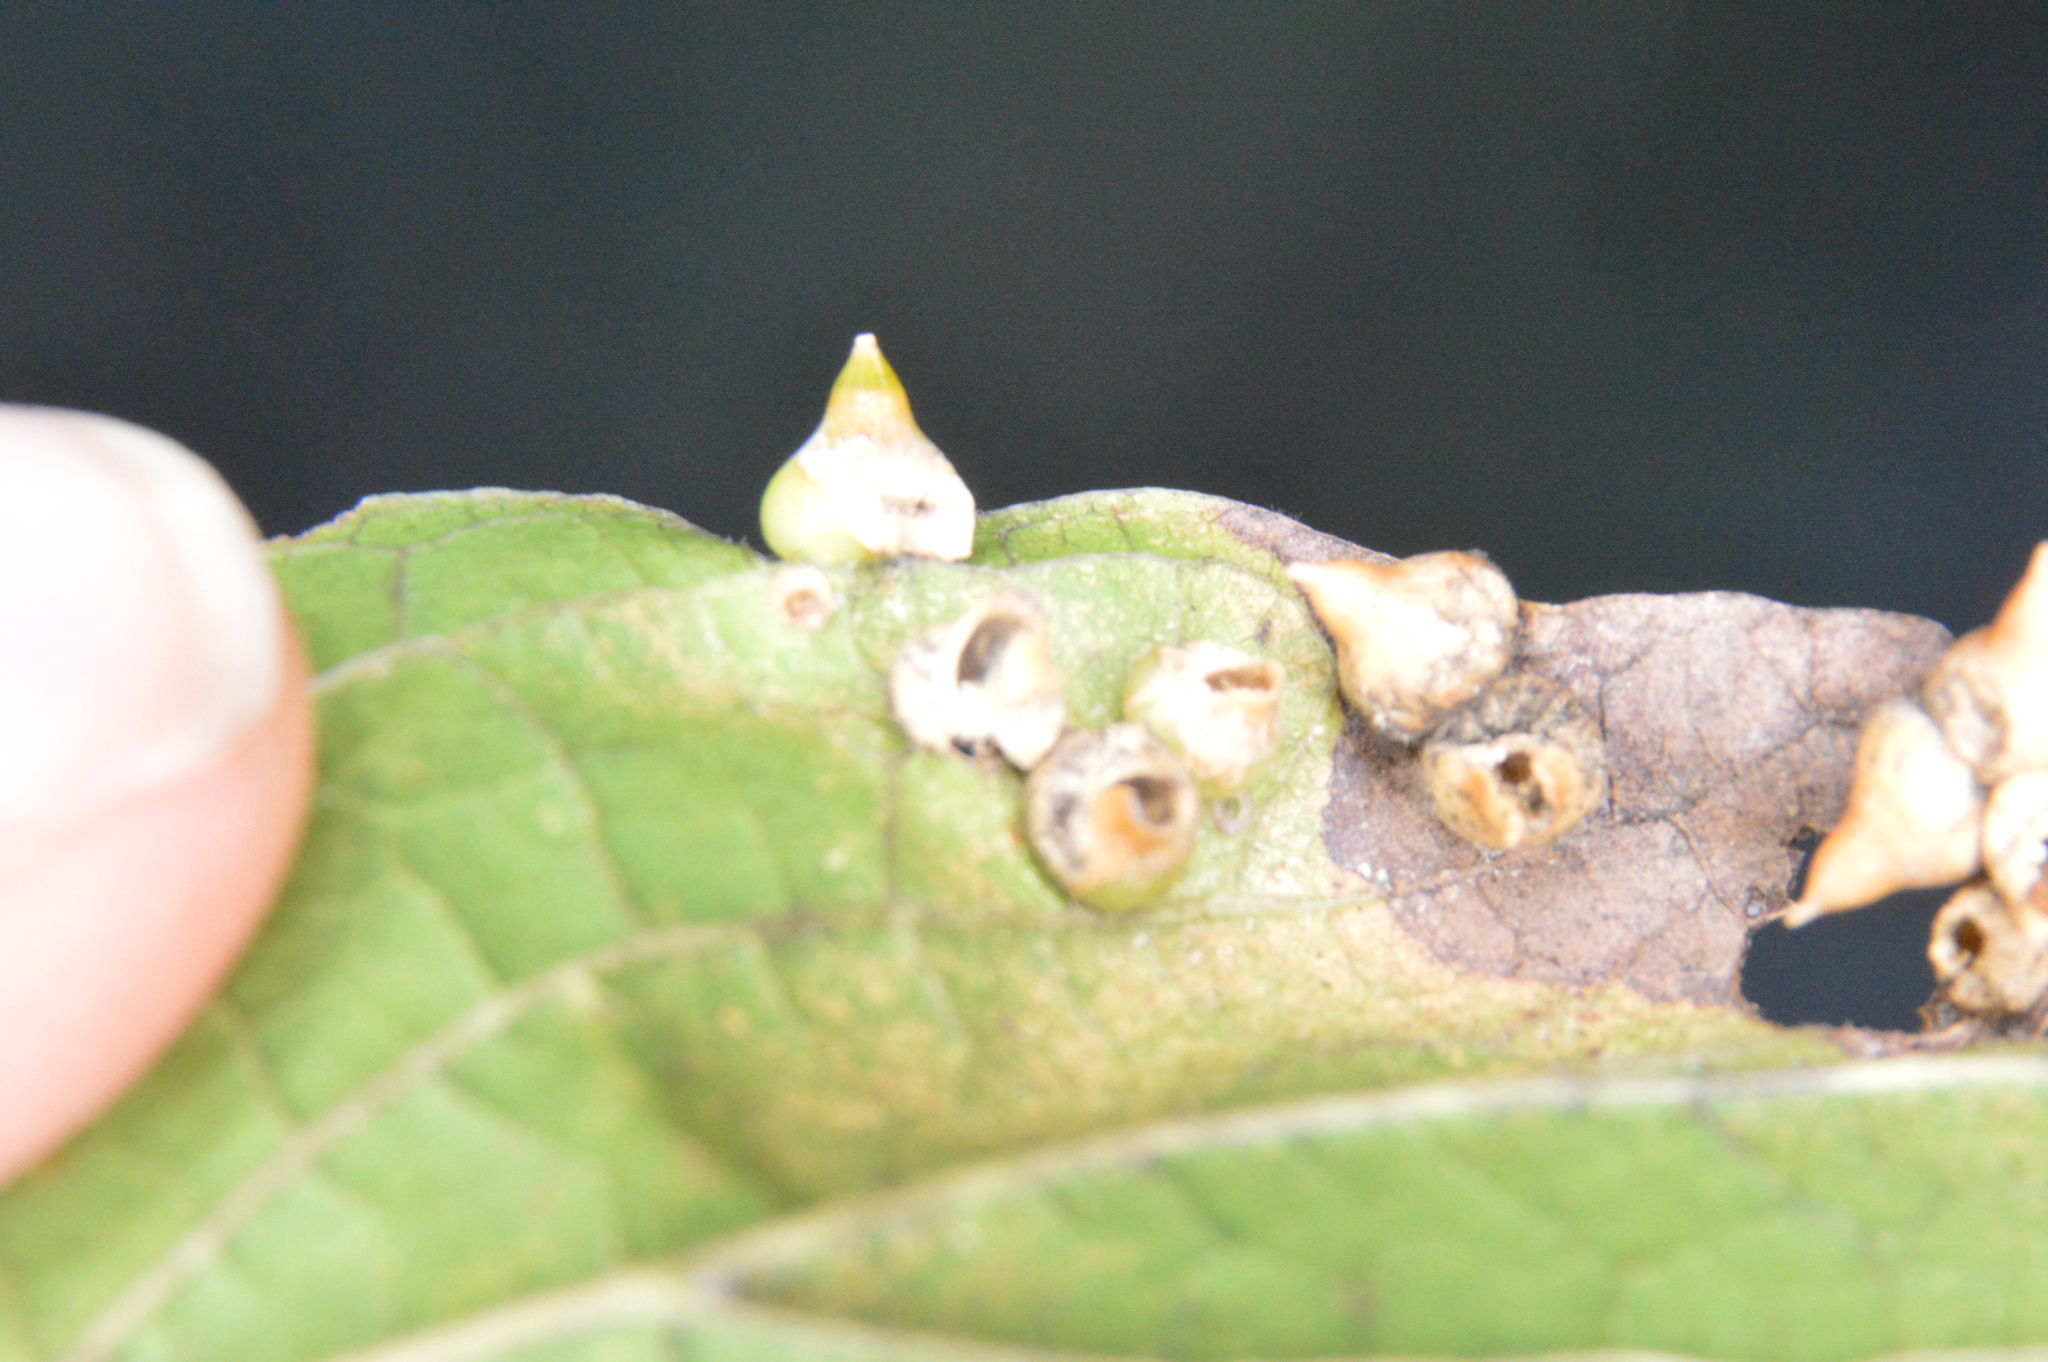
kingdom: Animalia
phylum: Arthropoda
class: Insecta
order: Diptera
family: Cecidomyiidae
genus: Celticecis
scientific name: Celticecis spiniformis
